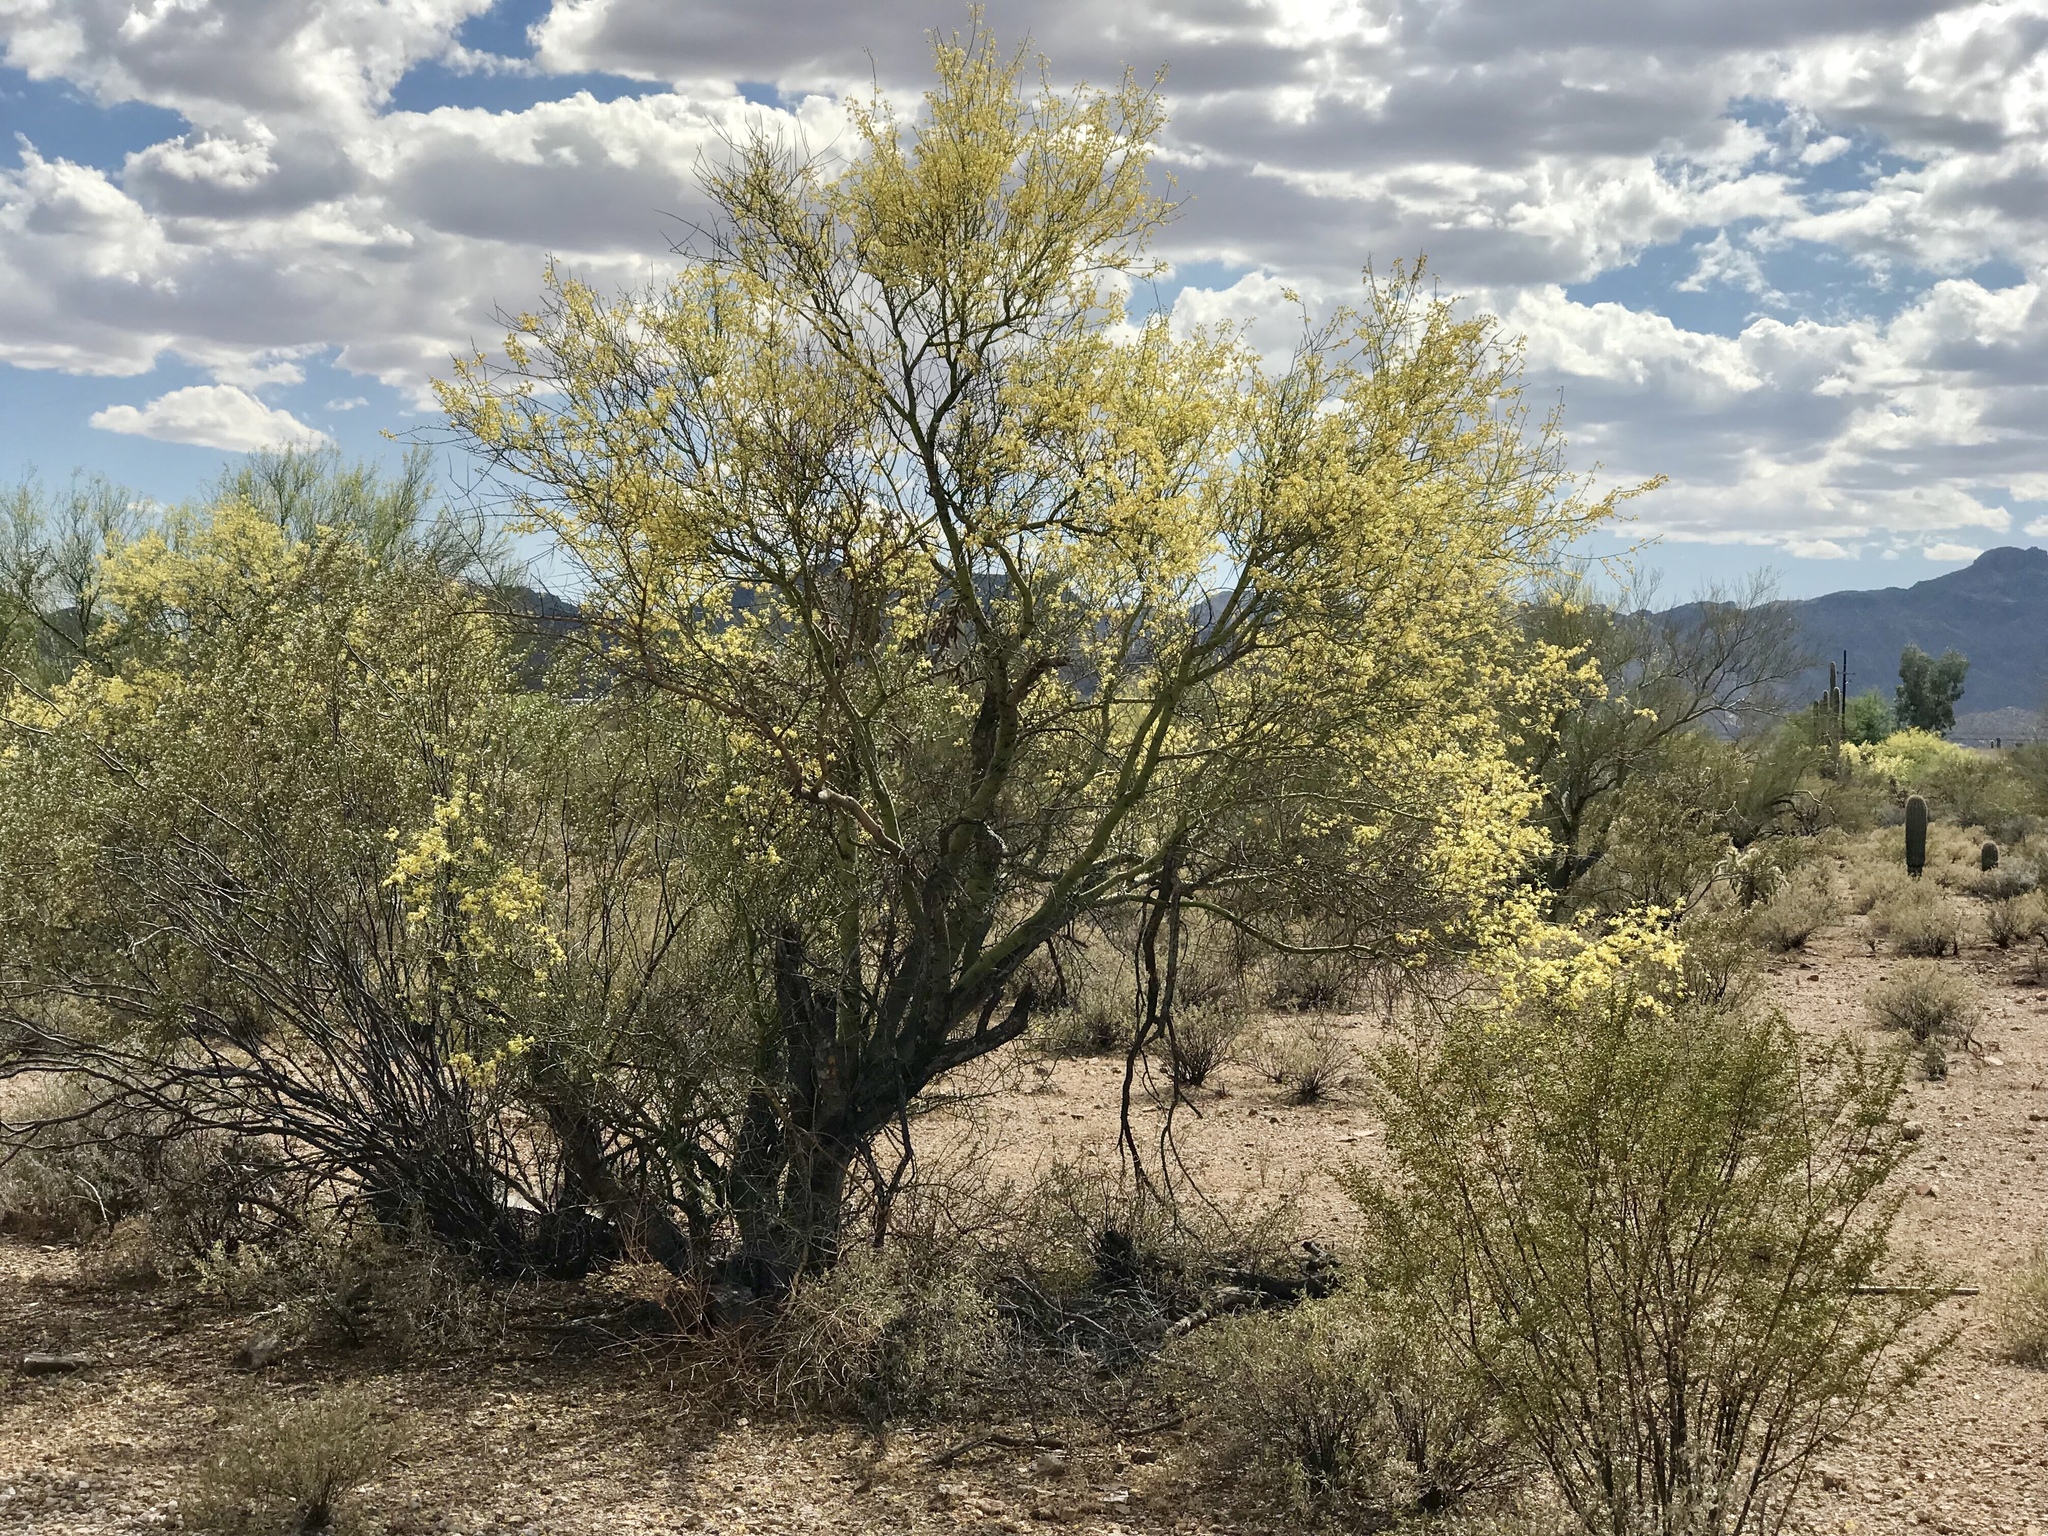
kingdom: Plantae
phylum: Tracheophyta
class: Magnoliopsida
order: Fabales
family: Fabaceae
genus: Parkinsonia
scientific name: Parkinsonia microphylla
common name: Yellow paloverde
